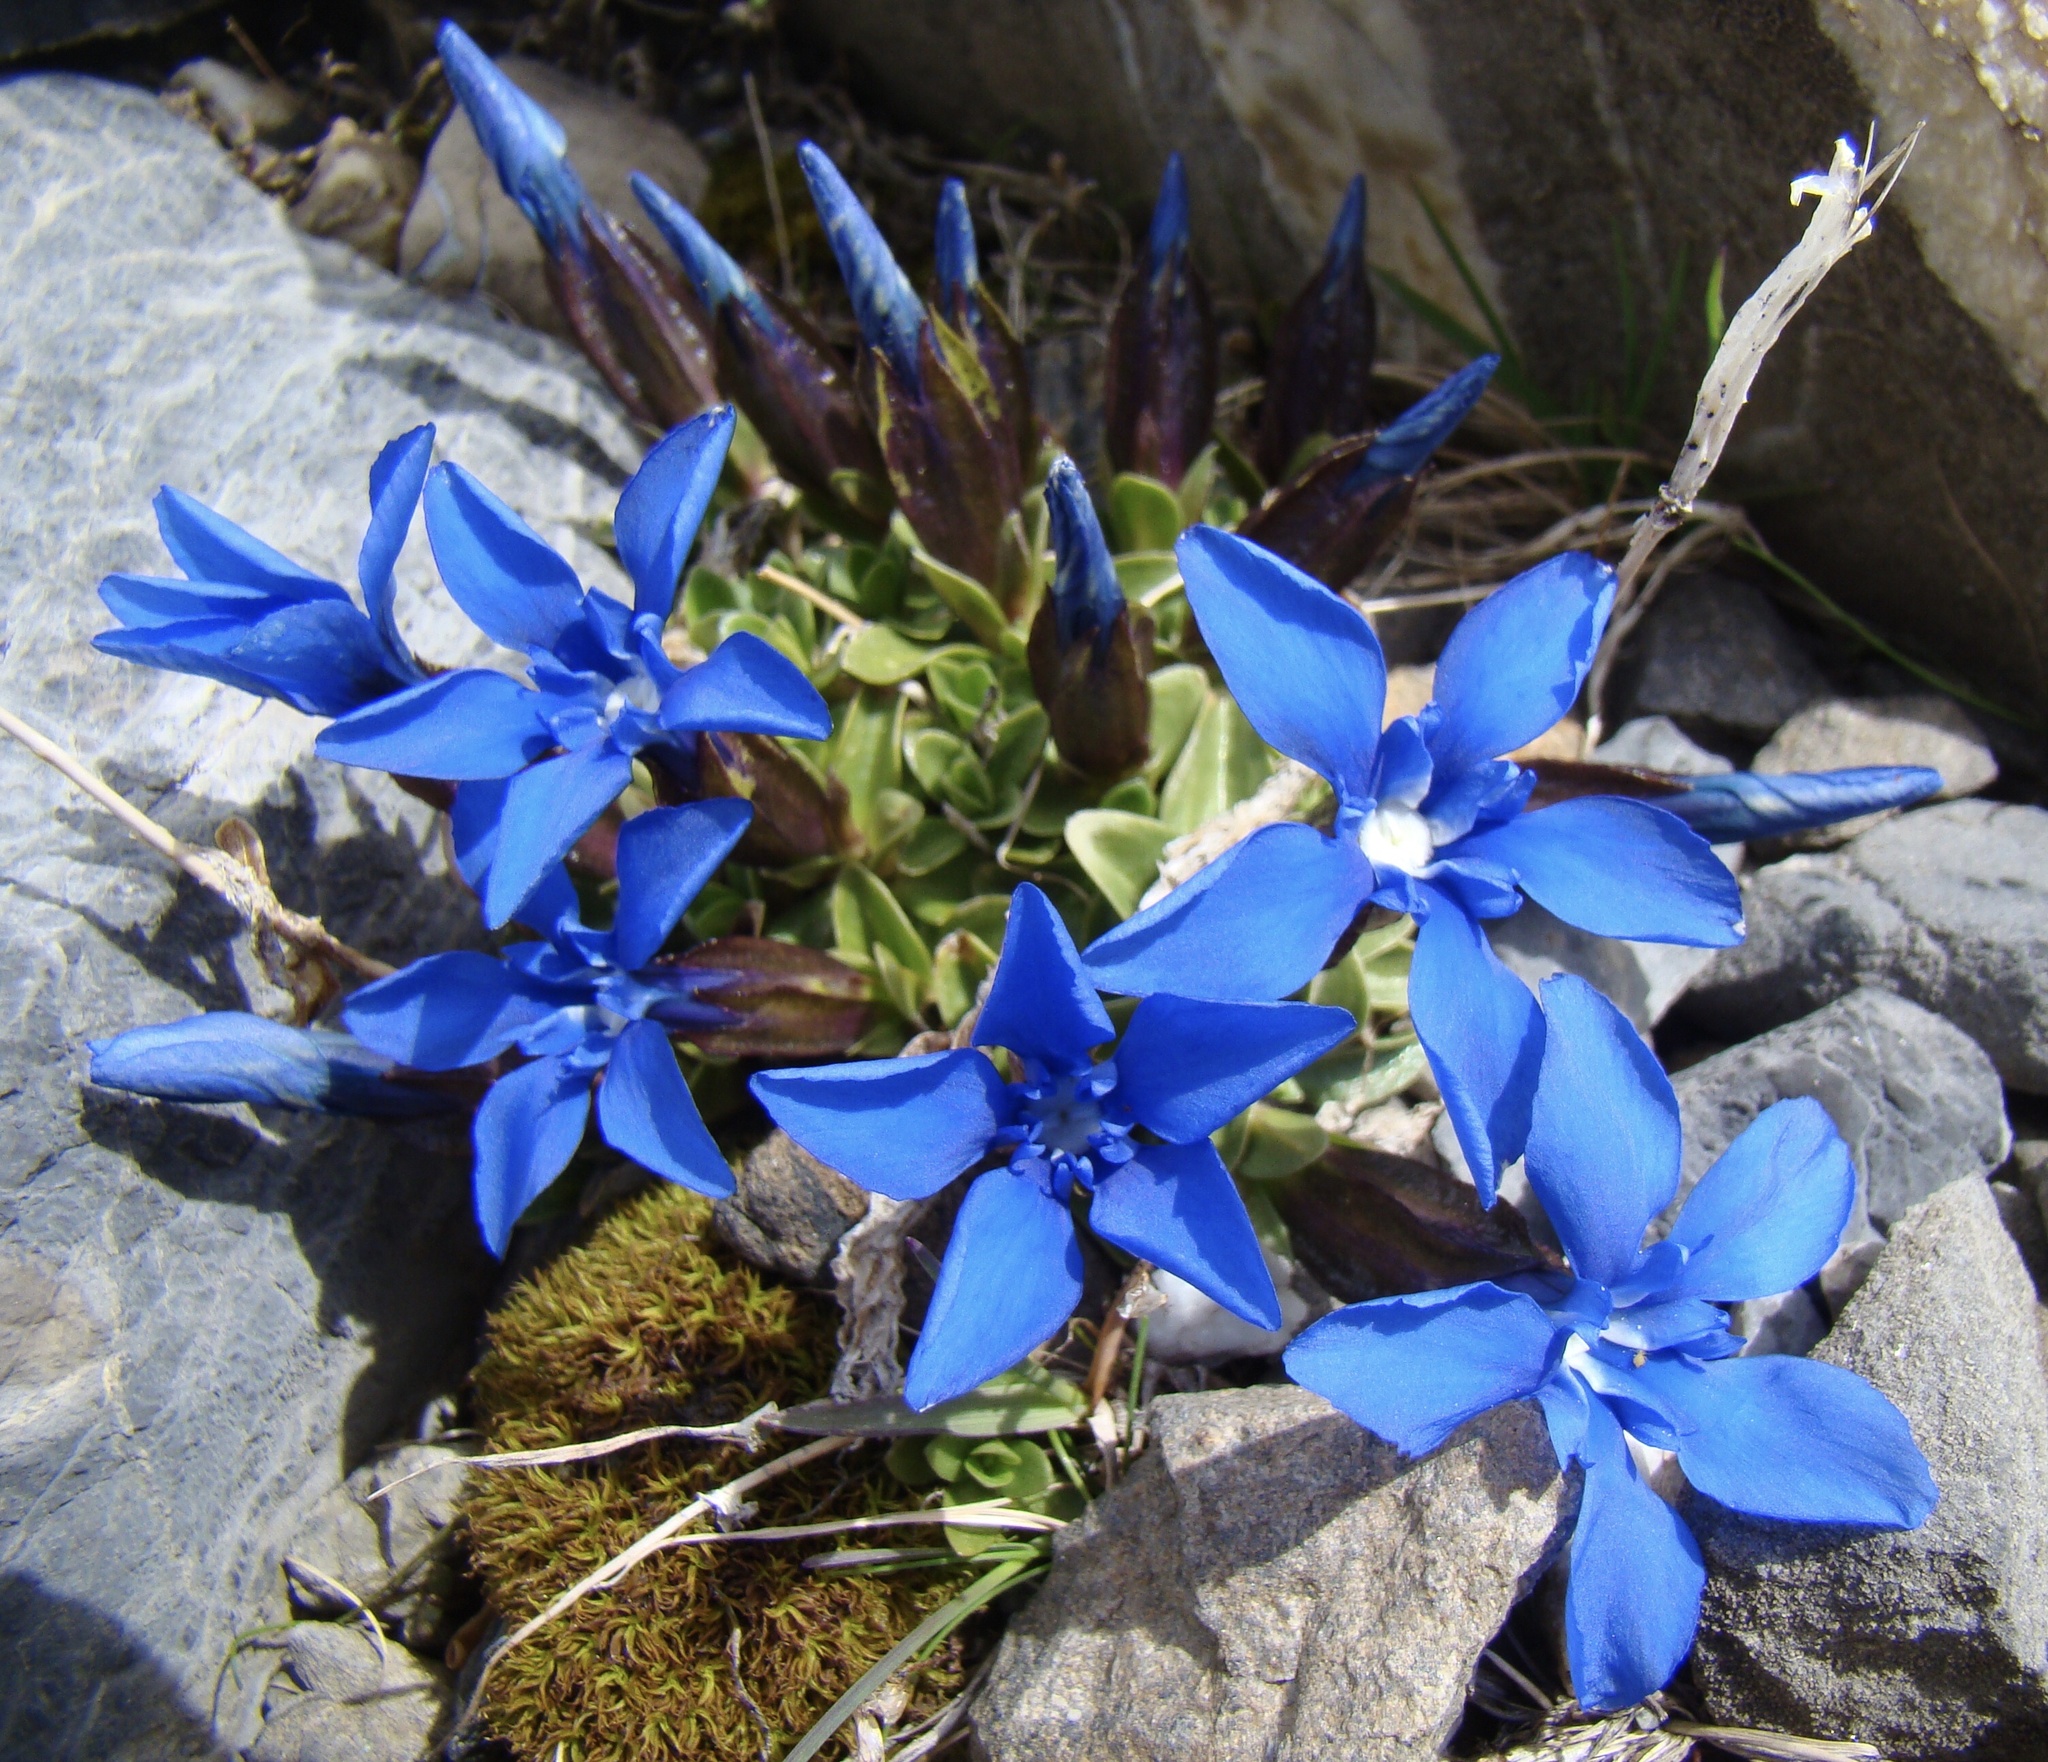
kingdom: Plantae
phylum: Tracheophyta
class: Magnoliopsida
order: Gentianales
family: Gentianaceae
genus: Gentiana
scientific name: Gentiana orbicularis
